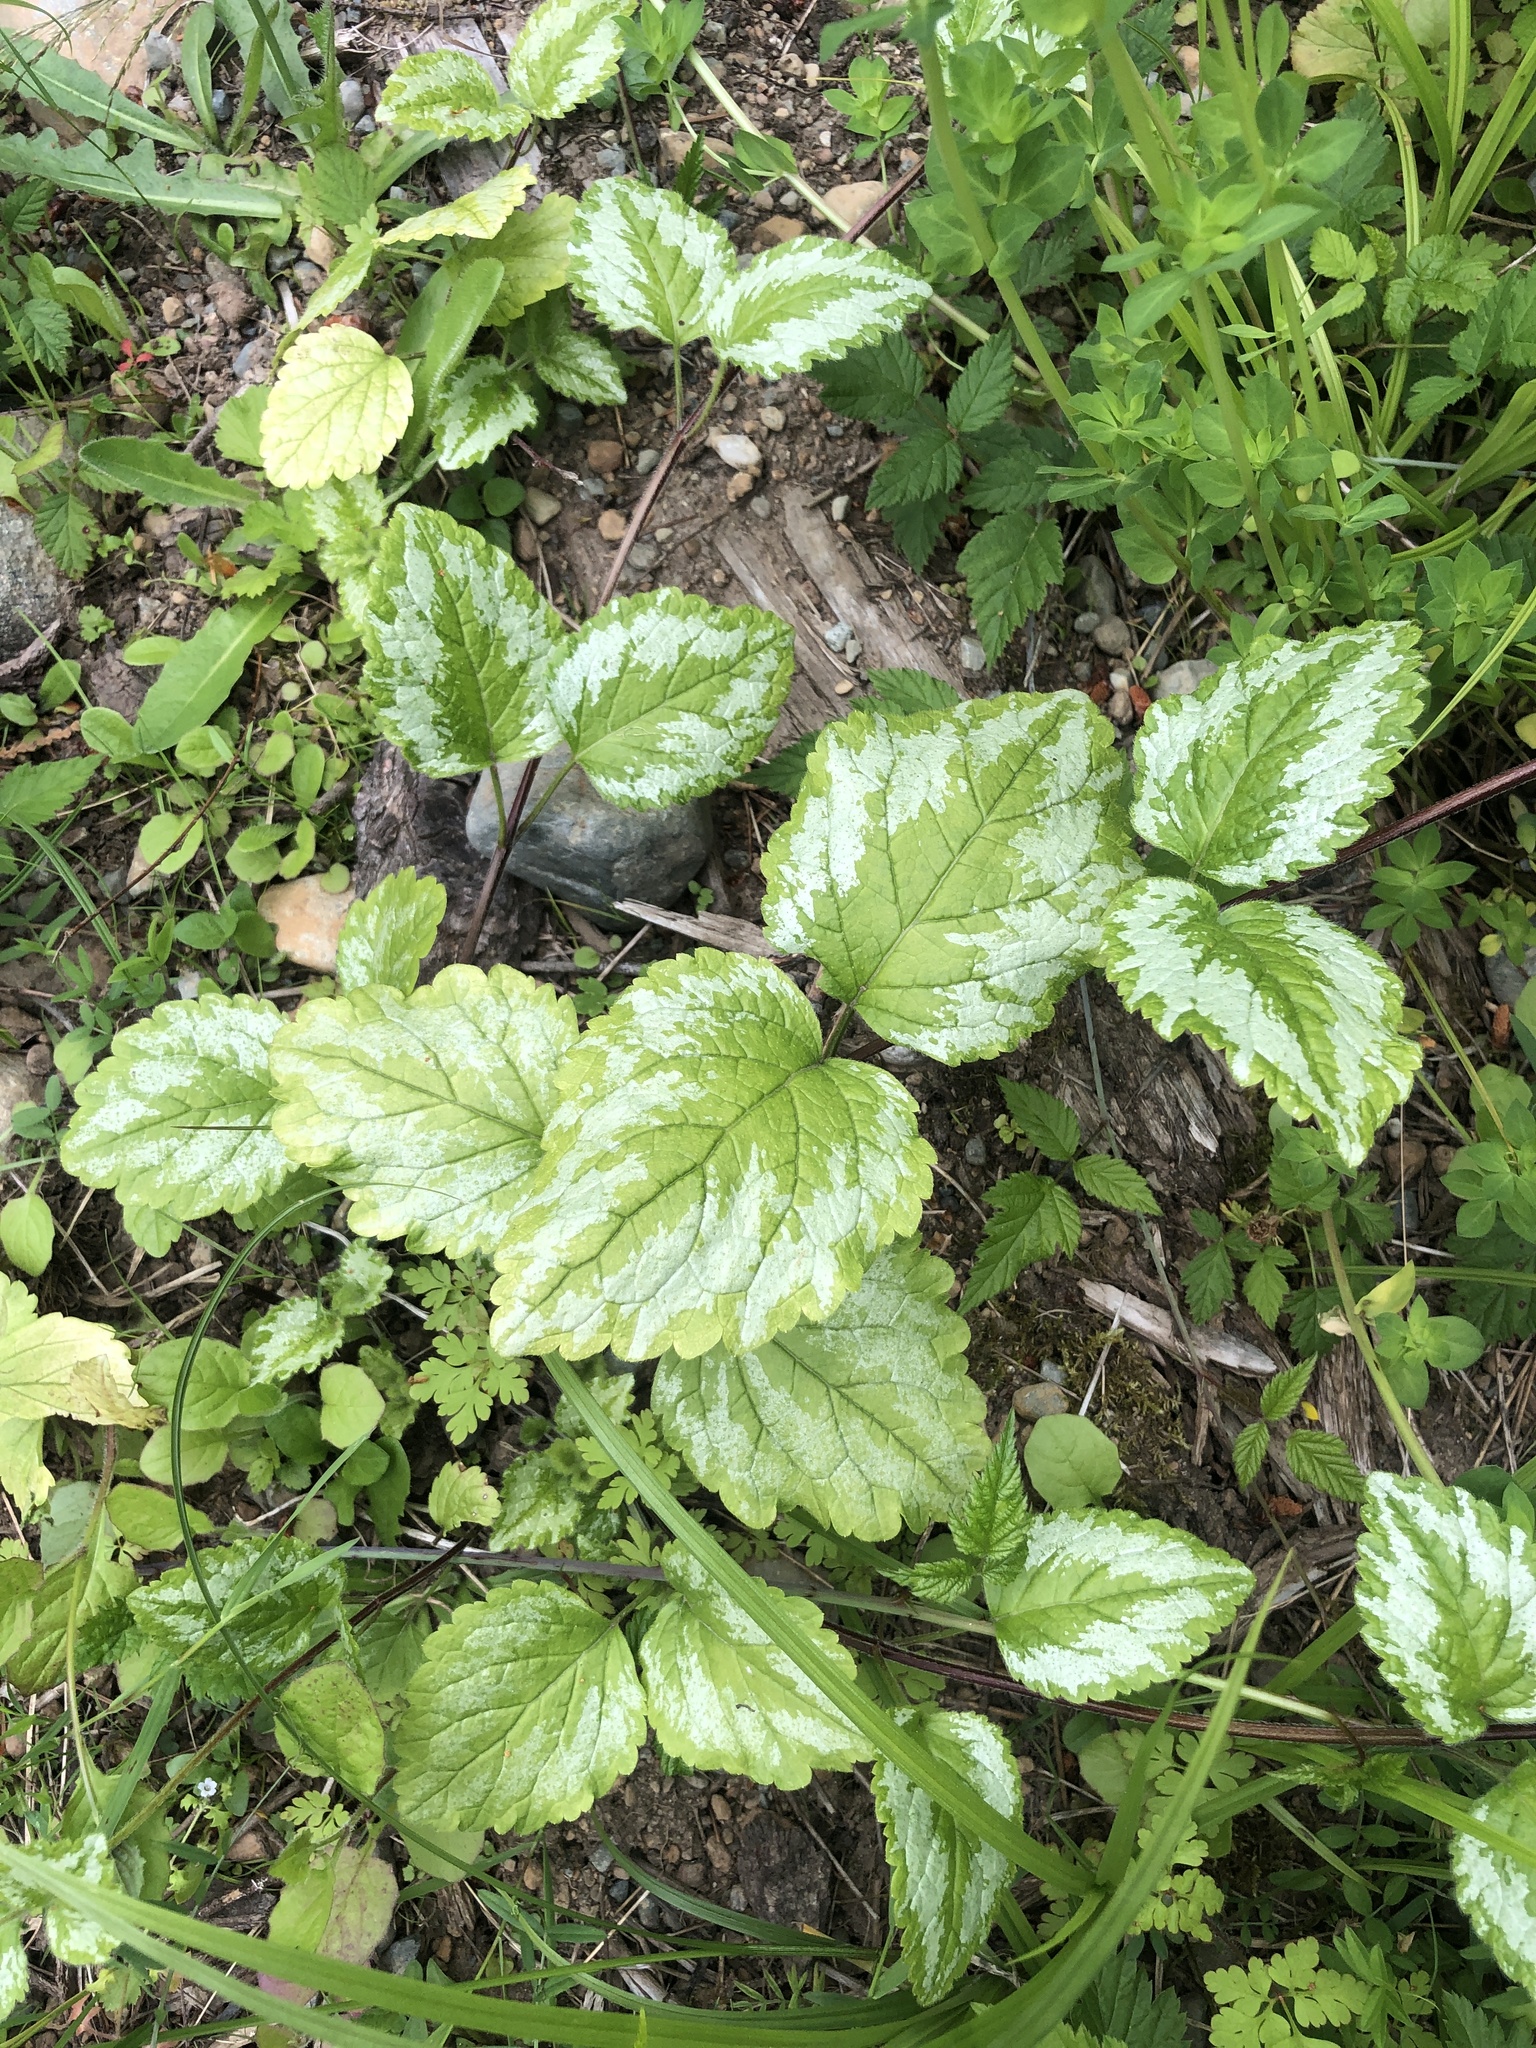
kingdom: Plantae
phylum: Tracheophyta
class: Magnoliopsida
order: Lamiales
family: Lamiaceae
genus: Lamium
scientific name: Lamium galeobdolon
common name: Yellow archangel
